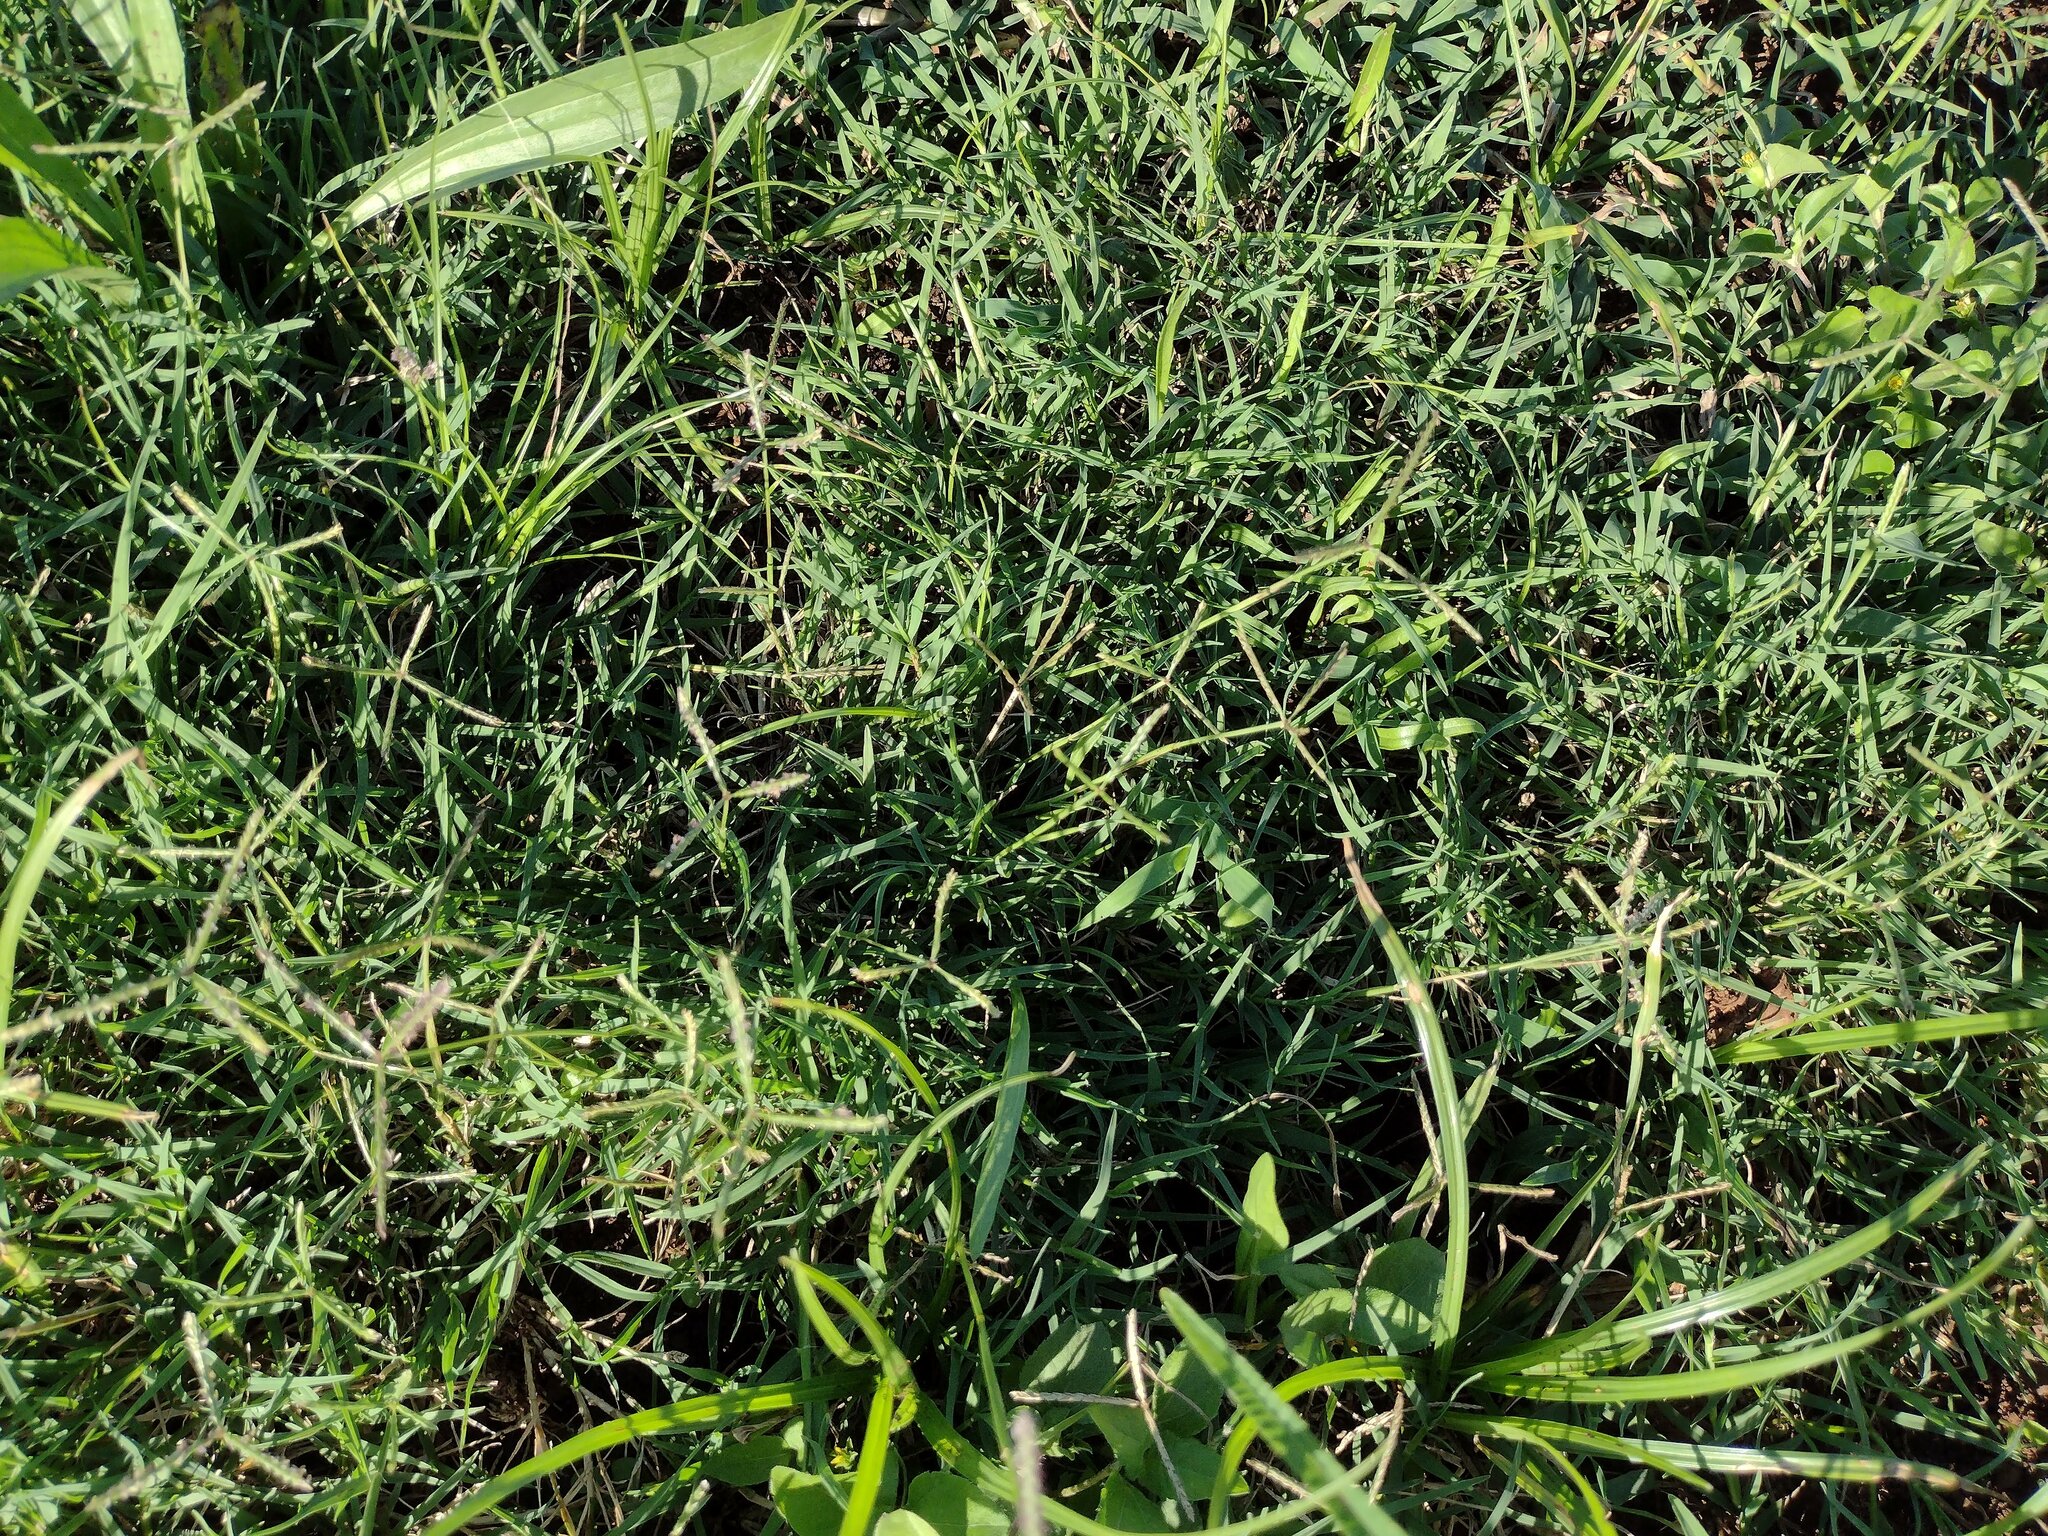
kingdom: Plantae
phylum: Tracheophyta
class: Liliopsida
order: Poales
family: Poaceae
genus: Cynodon
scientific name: Cynodon dactylon
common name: Bermuda grass
